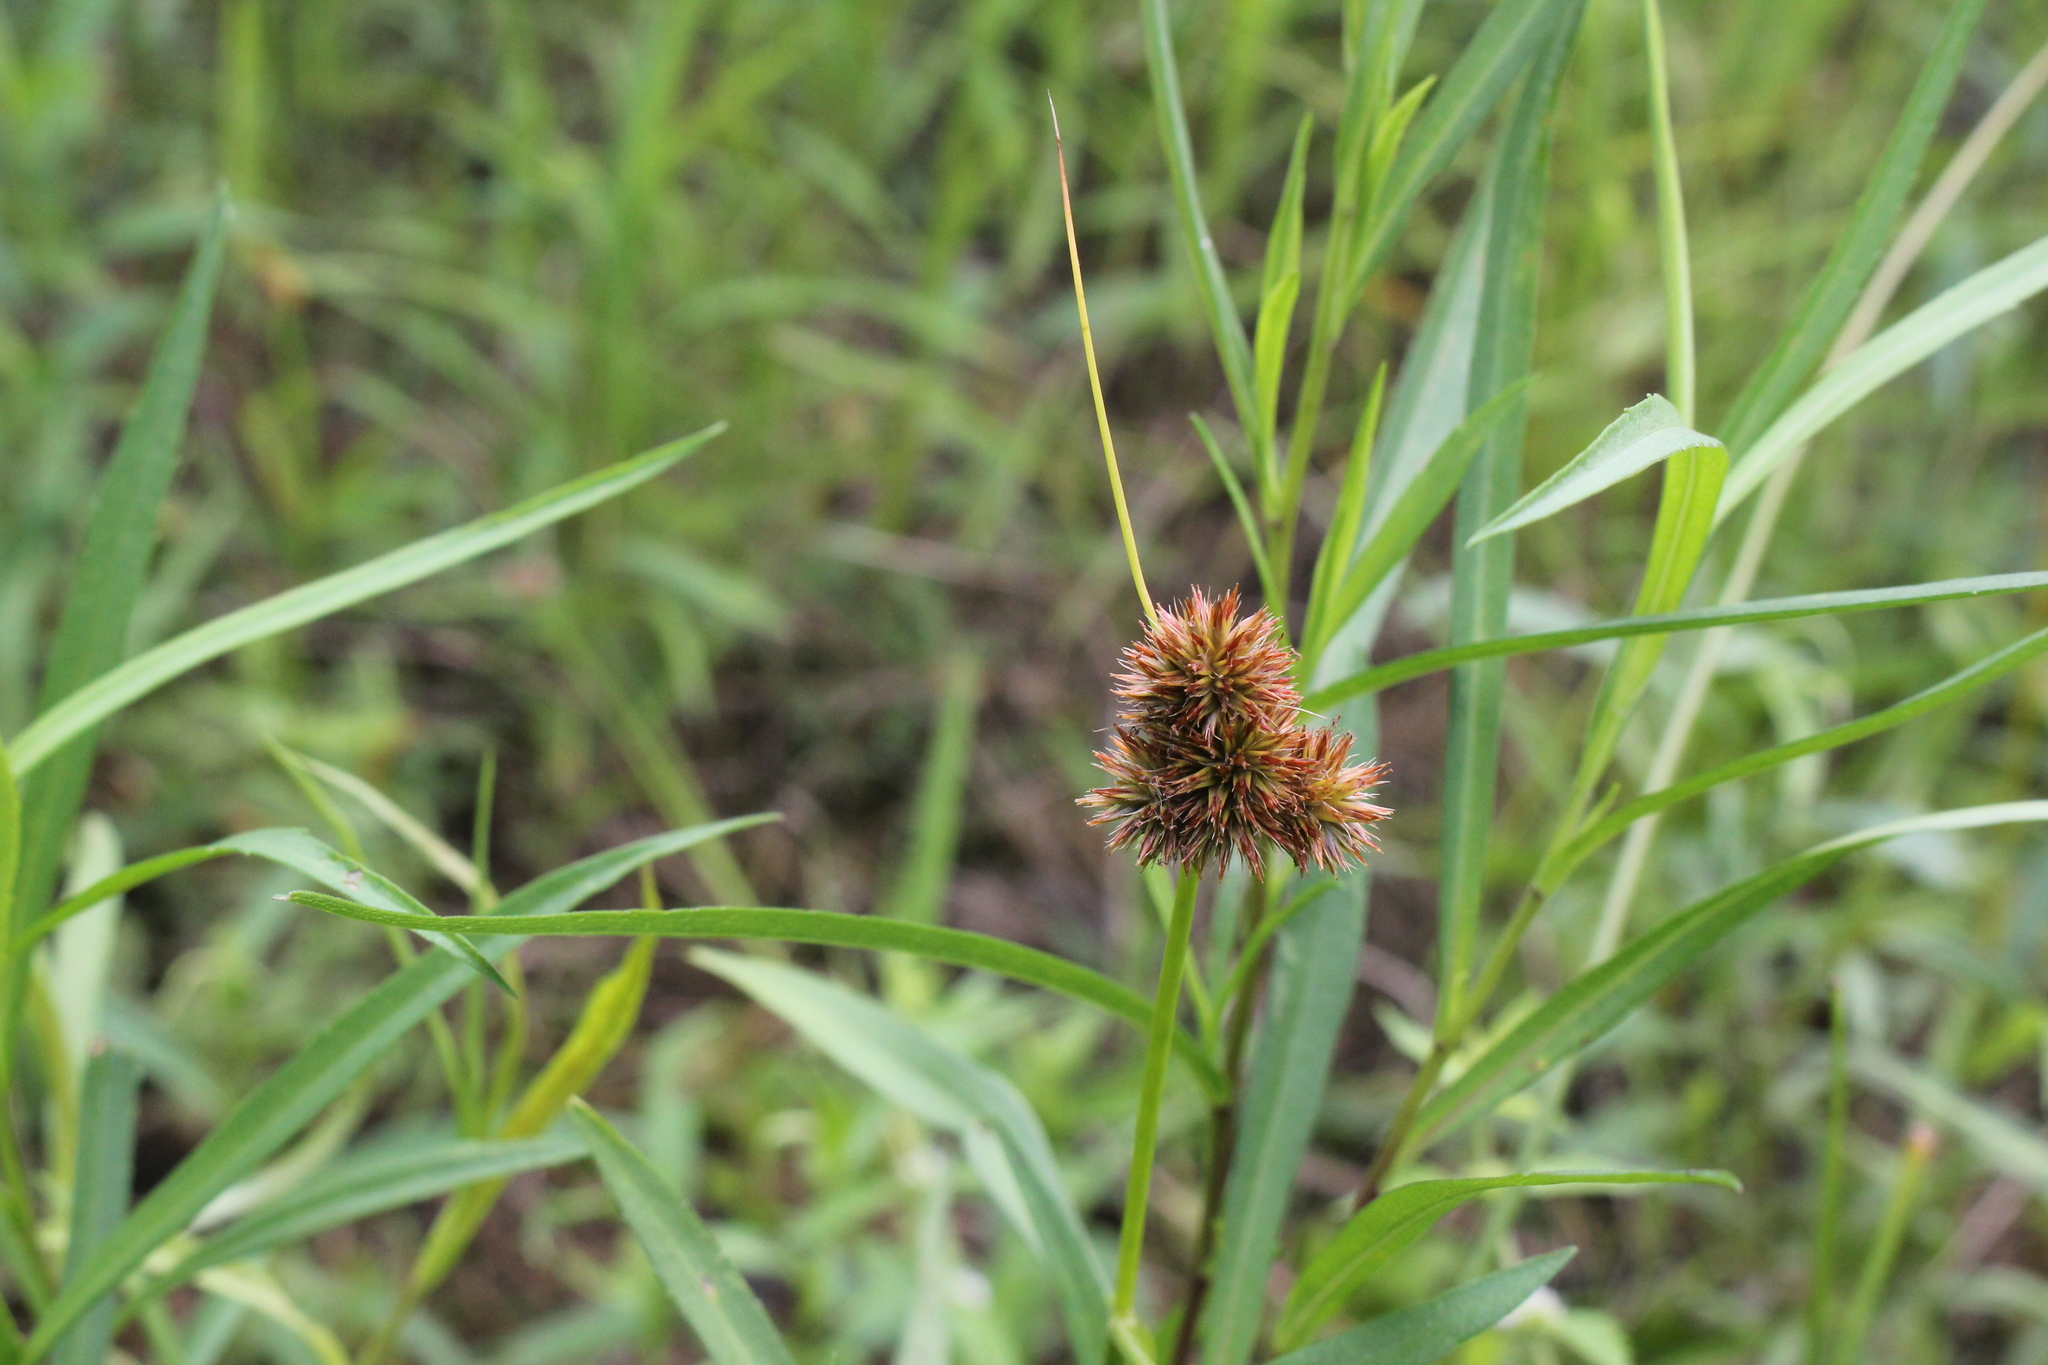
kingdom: Plantae
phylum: Tracheophyta
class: Liliopsida
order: Poales
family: Juncaceae
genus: Juncus
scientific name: Juncus torreyi
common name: Torrey's rush
